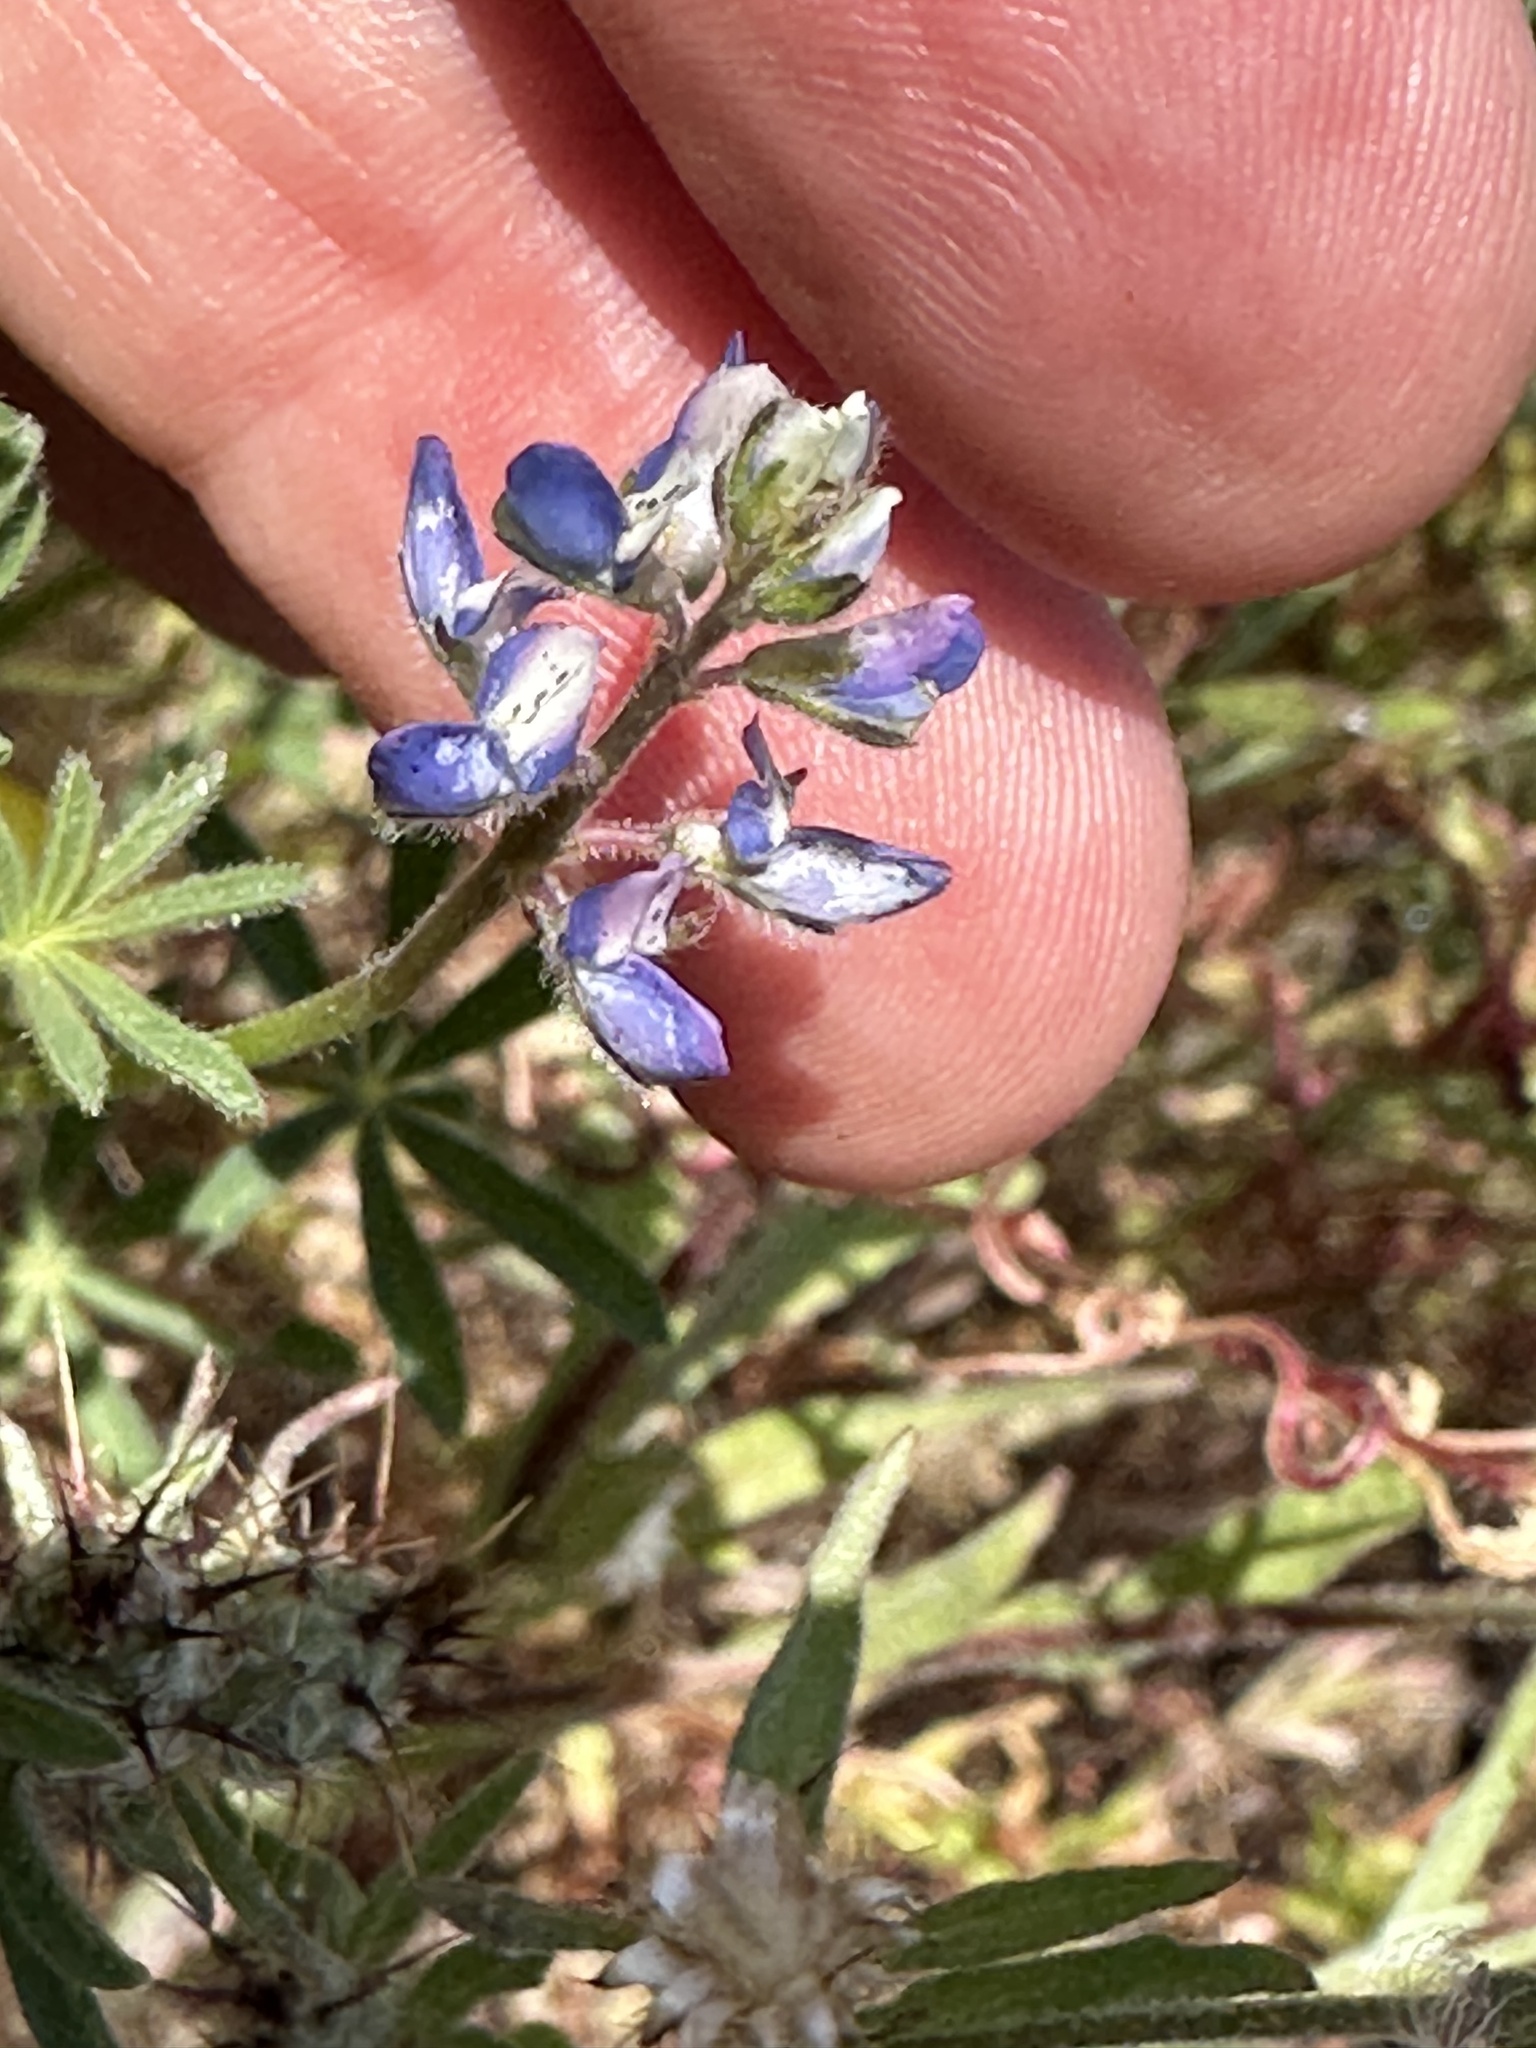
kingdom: Plantae
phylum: Tracheophyta
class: Magnoliopsida
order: Fabales
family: Fabaceae
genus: Lupinus
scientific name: Lupinus bicolor
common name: Miniature lupine
